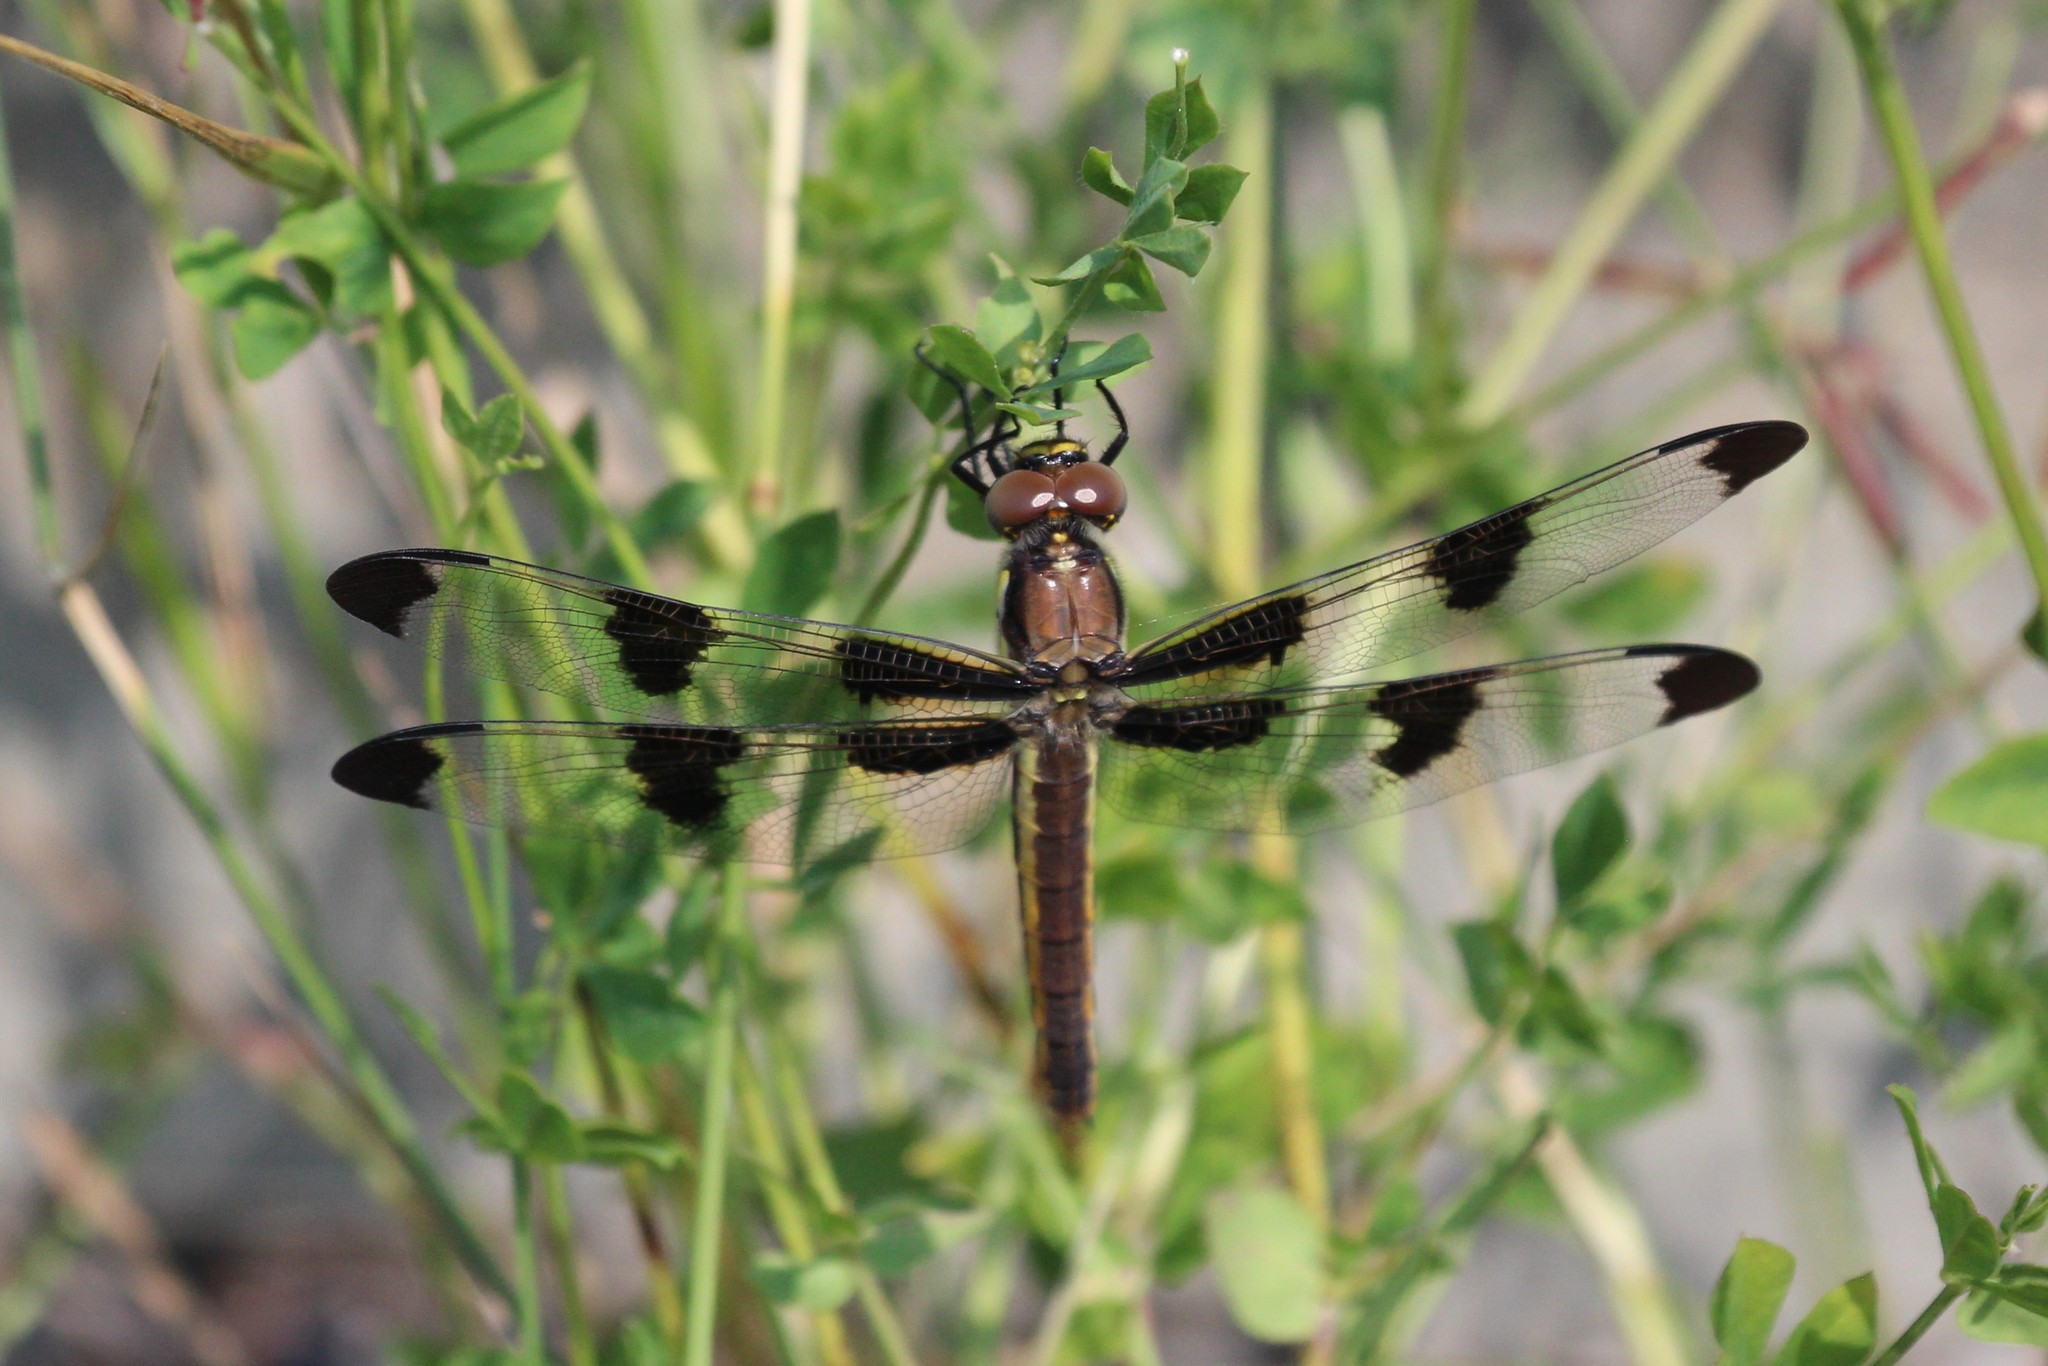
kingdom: Animalia
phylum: Arthropoda
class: Insecta
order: Odonata
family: Libellulidae
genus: Libellula
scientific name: Libellula pulchella
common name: Twelve-spotted skimmer
